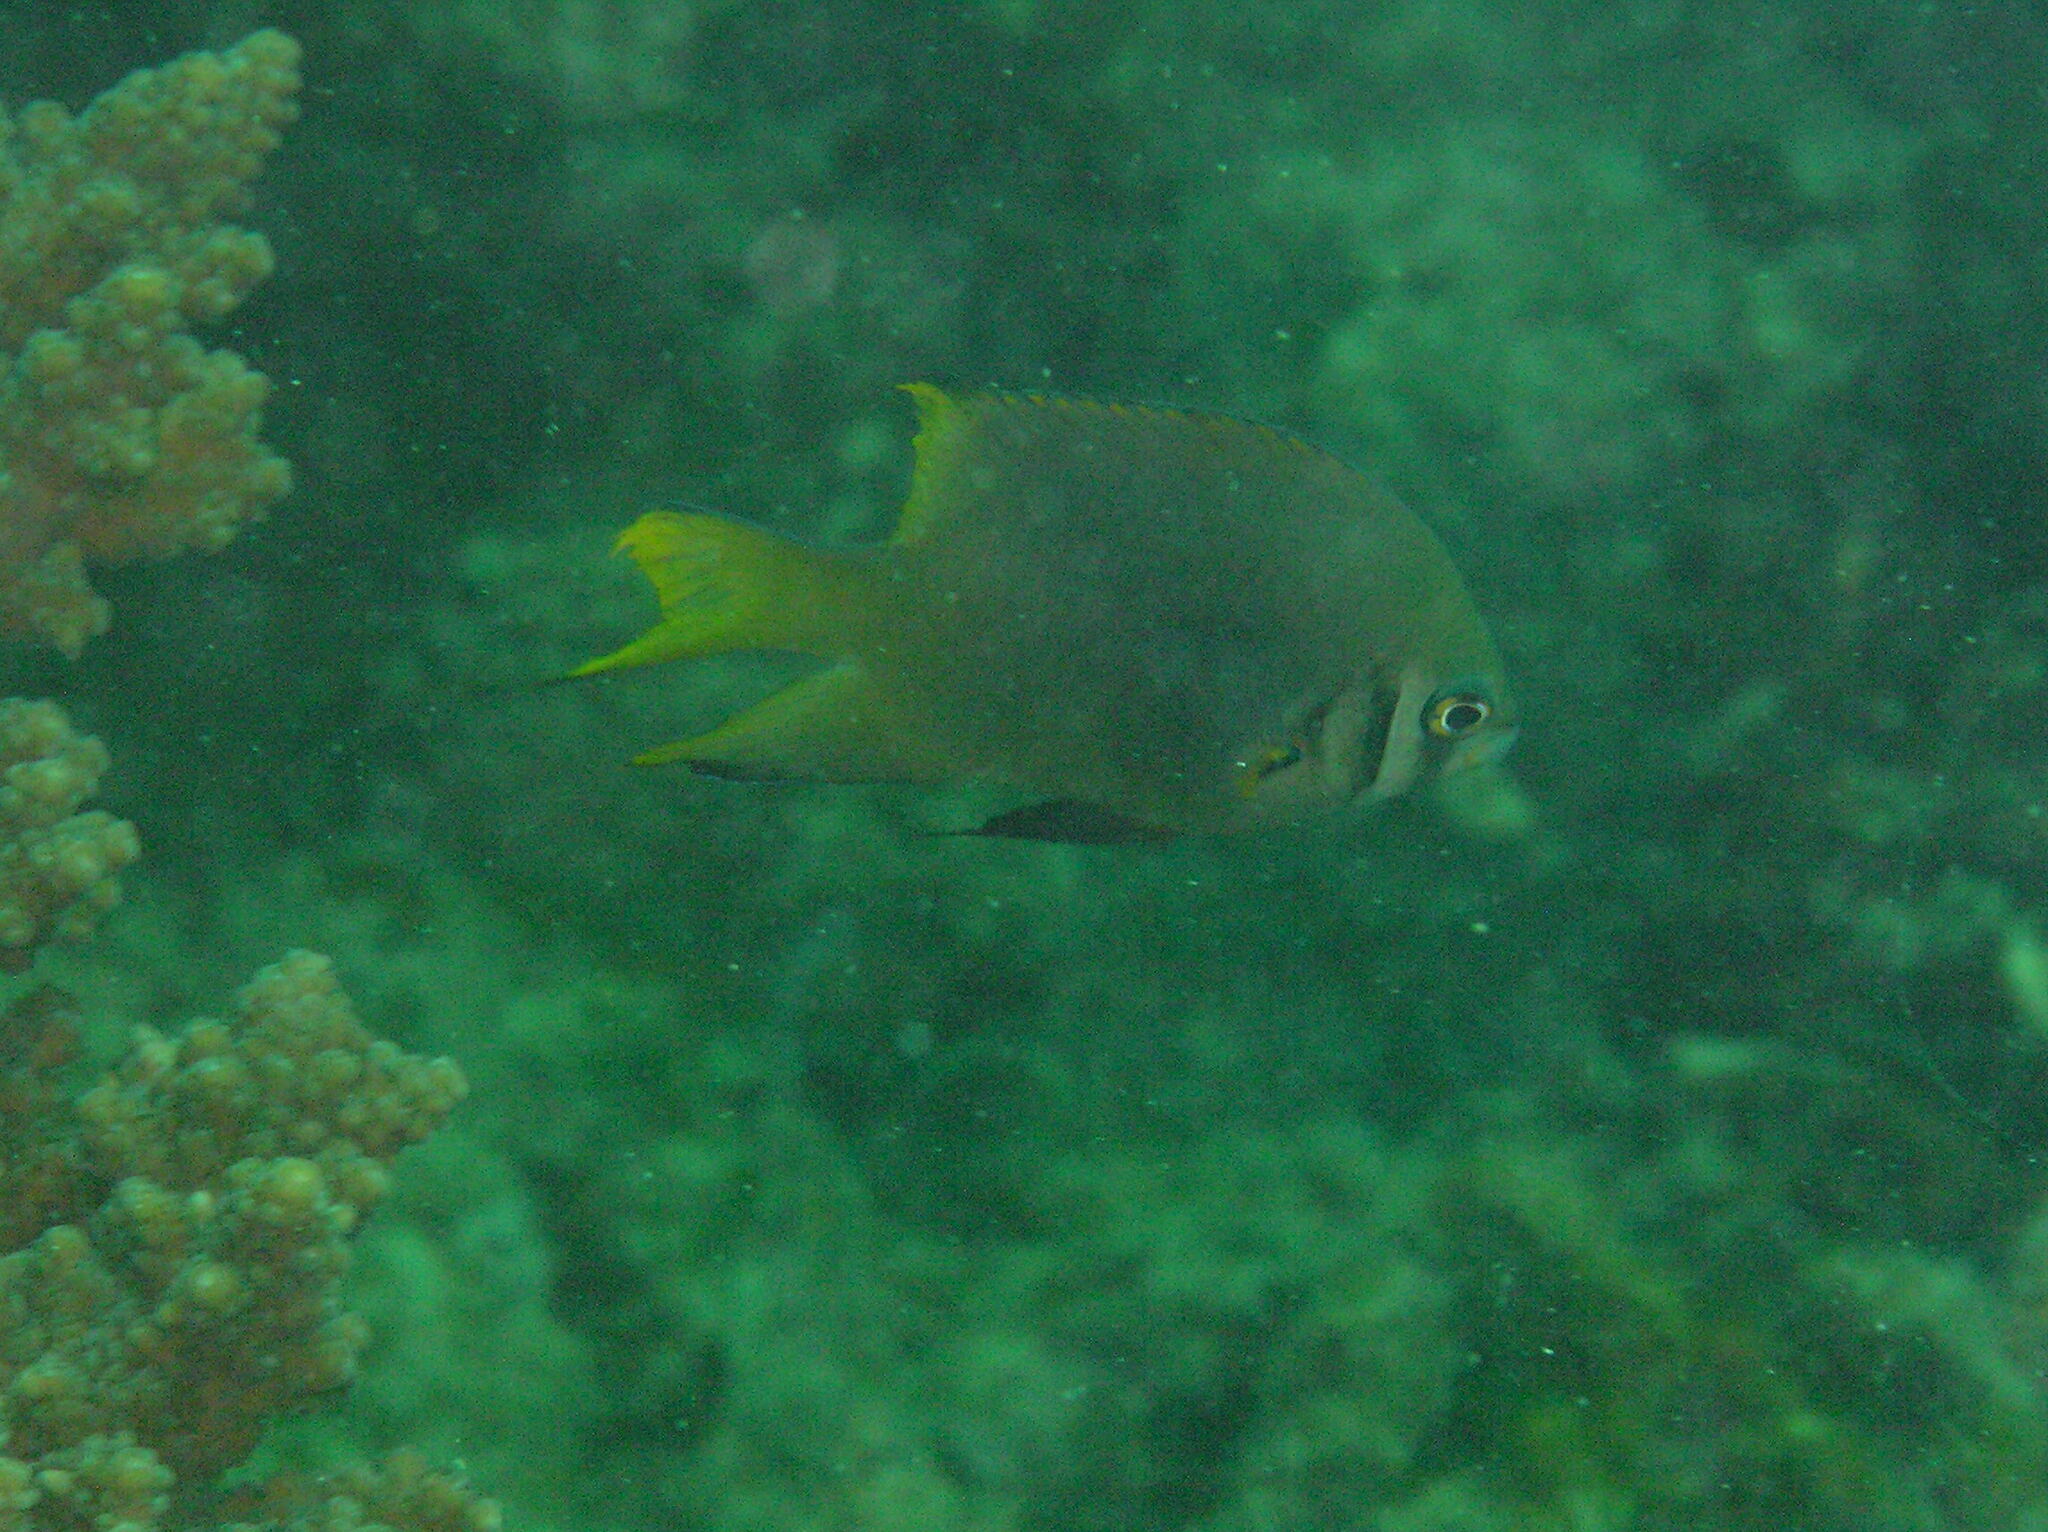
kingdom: Animalia
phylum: Chordata
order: Perciformes
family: Pomacentridae
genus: Neoglyphidodon
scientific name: Neoglyphidodon nigroris
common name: Behn's damsel
